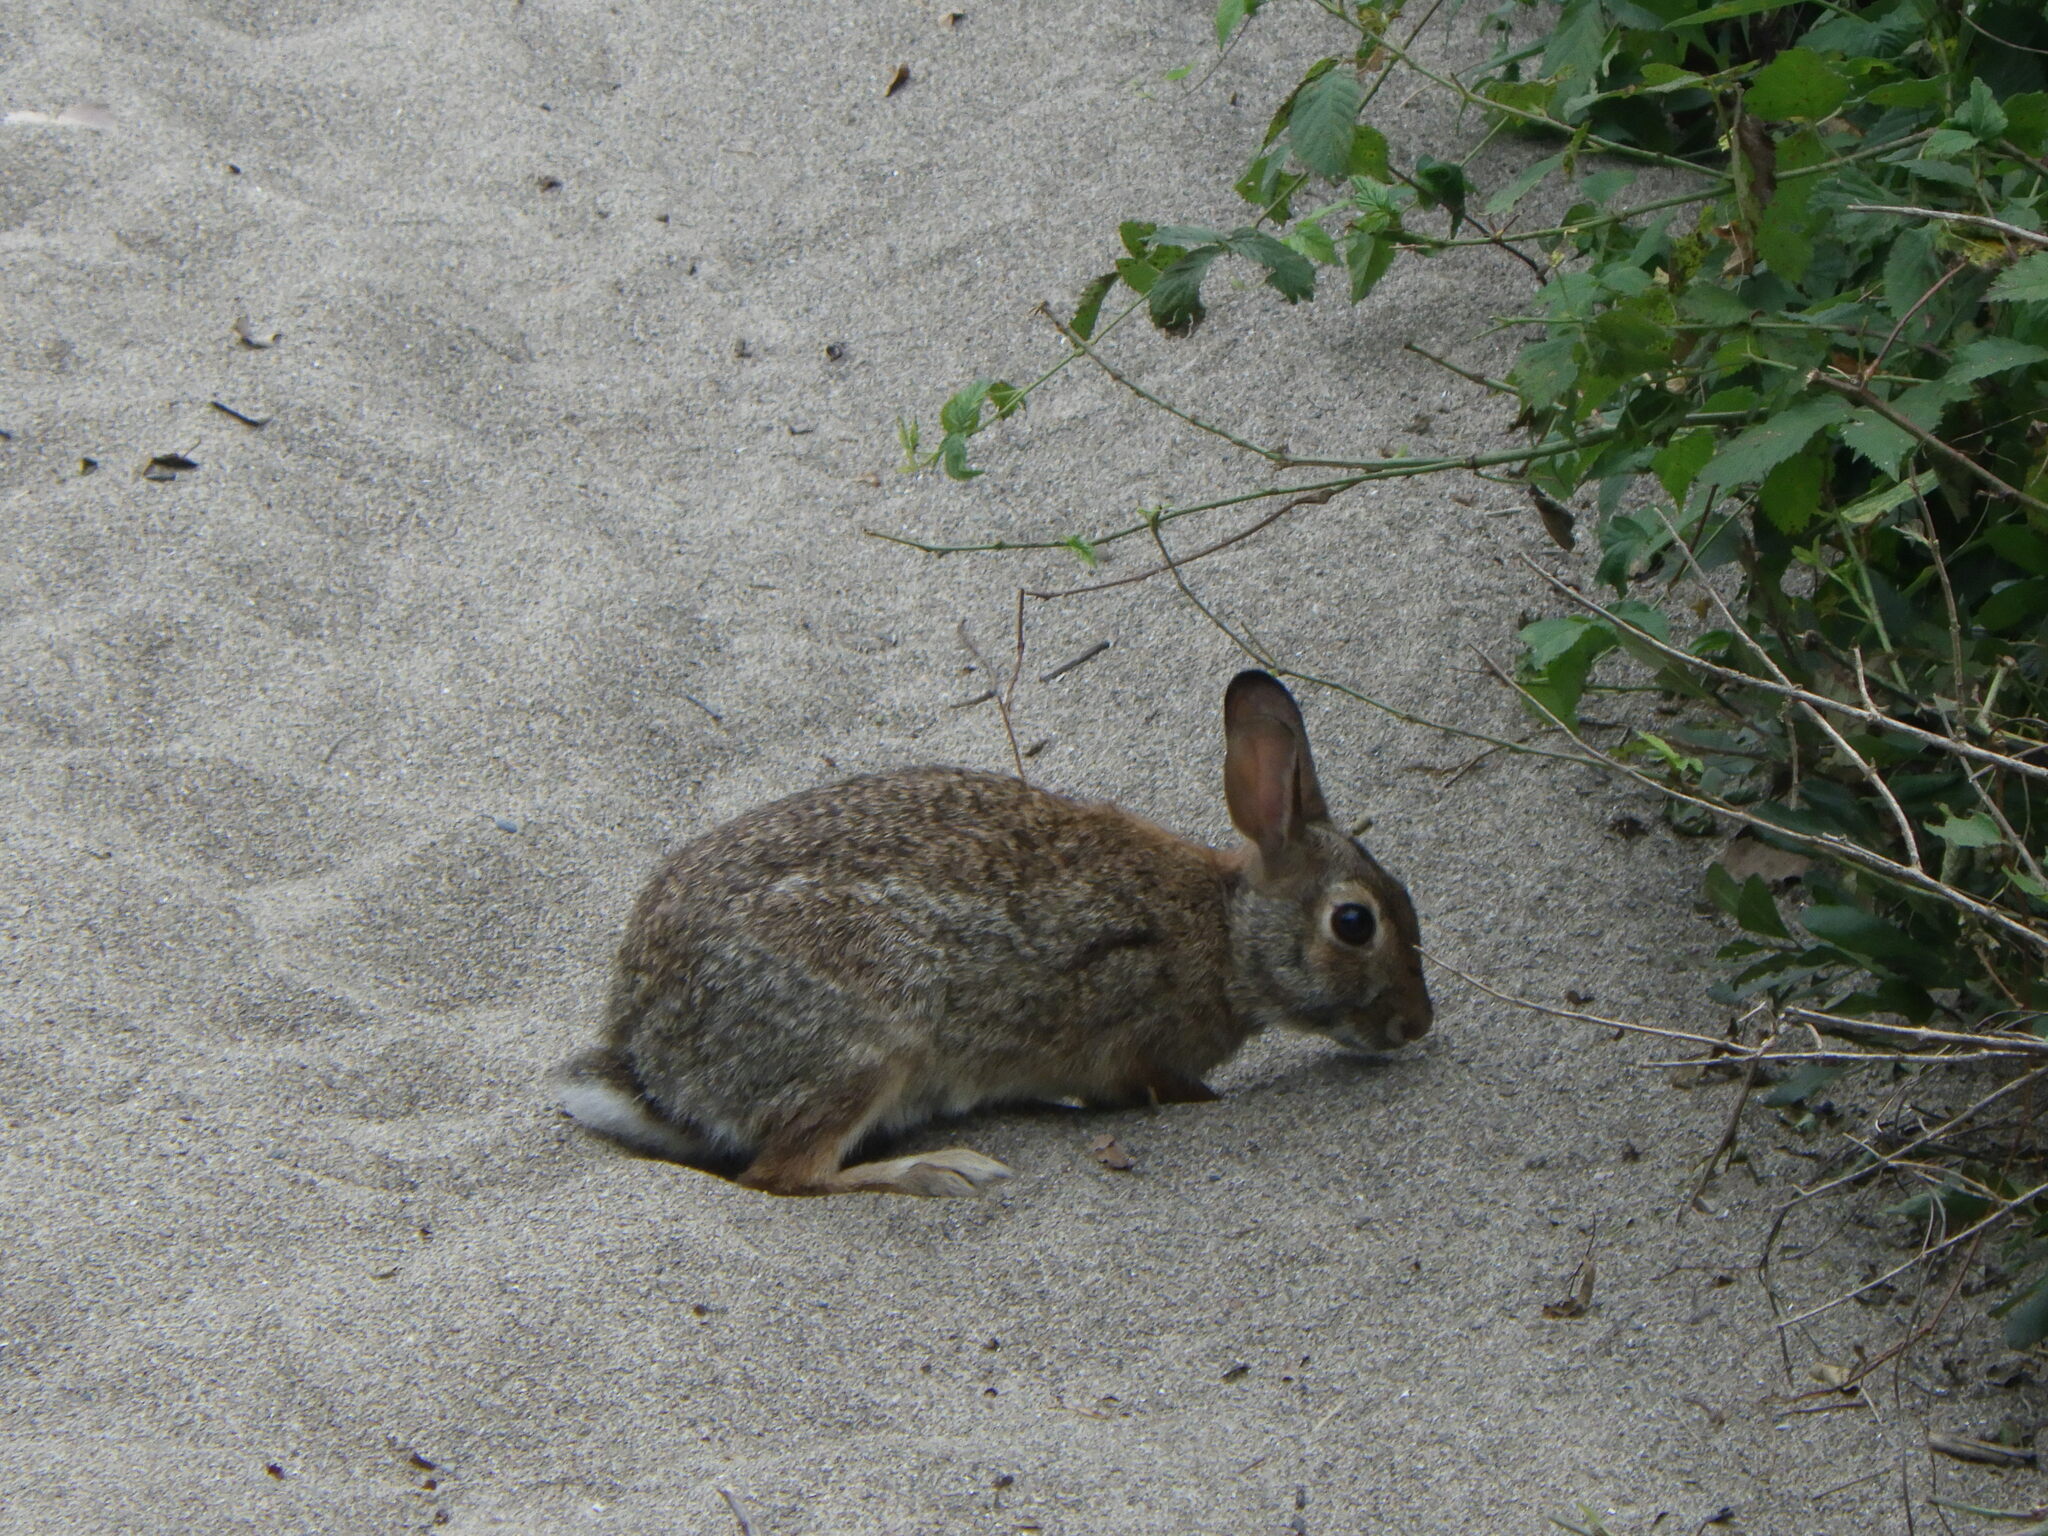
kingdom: Animalia
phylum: Chordata
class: Mammalia
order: Lagomorpha
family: Leporidae
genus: Sylvilagus
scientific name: Sylvilagus floridanus
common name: Eastern cottontail
